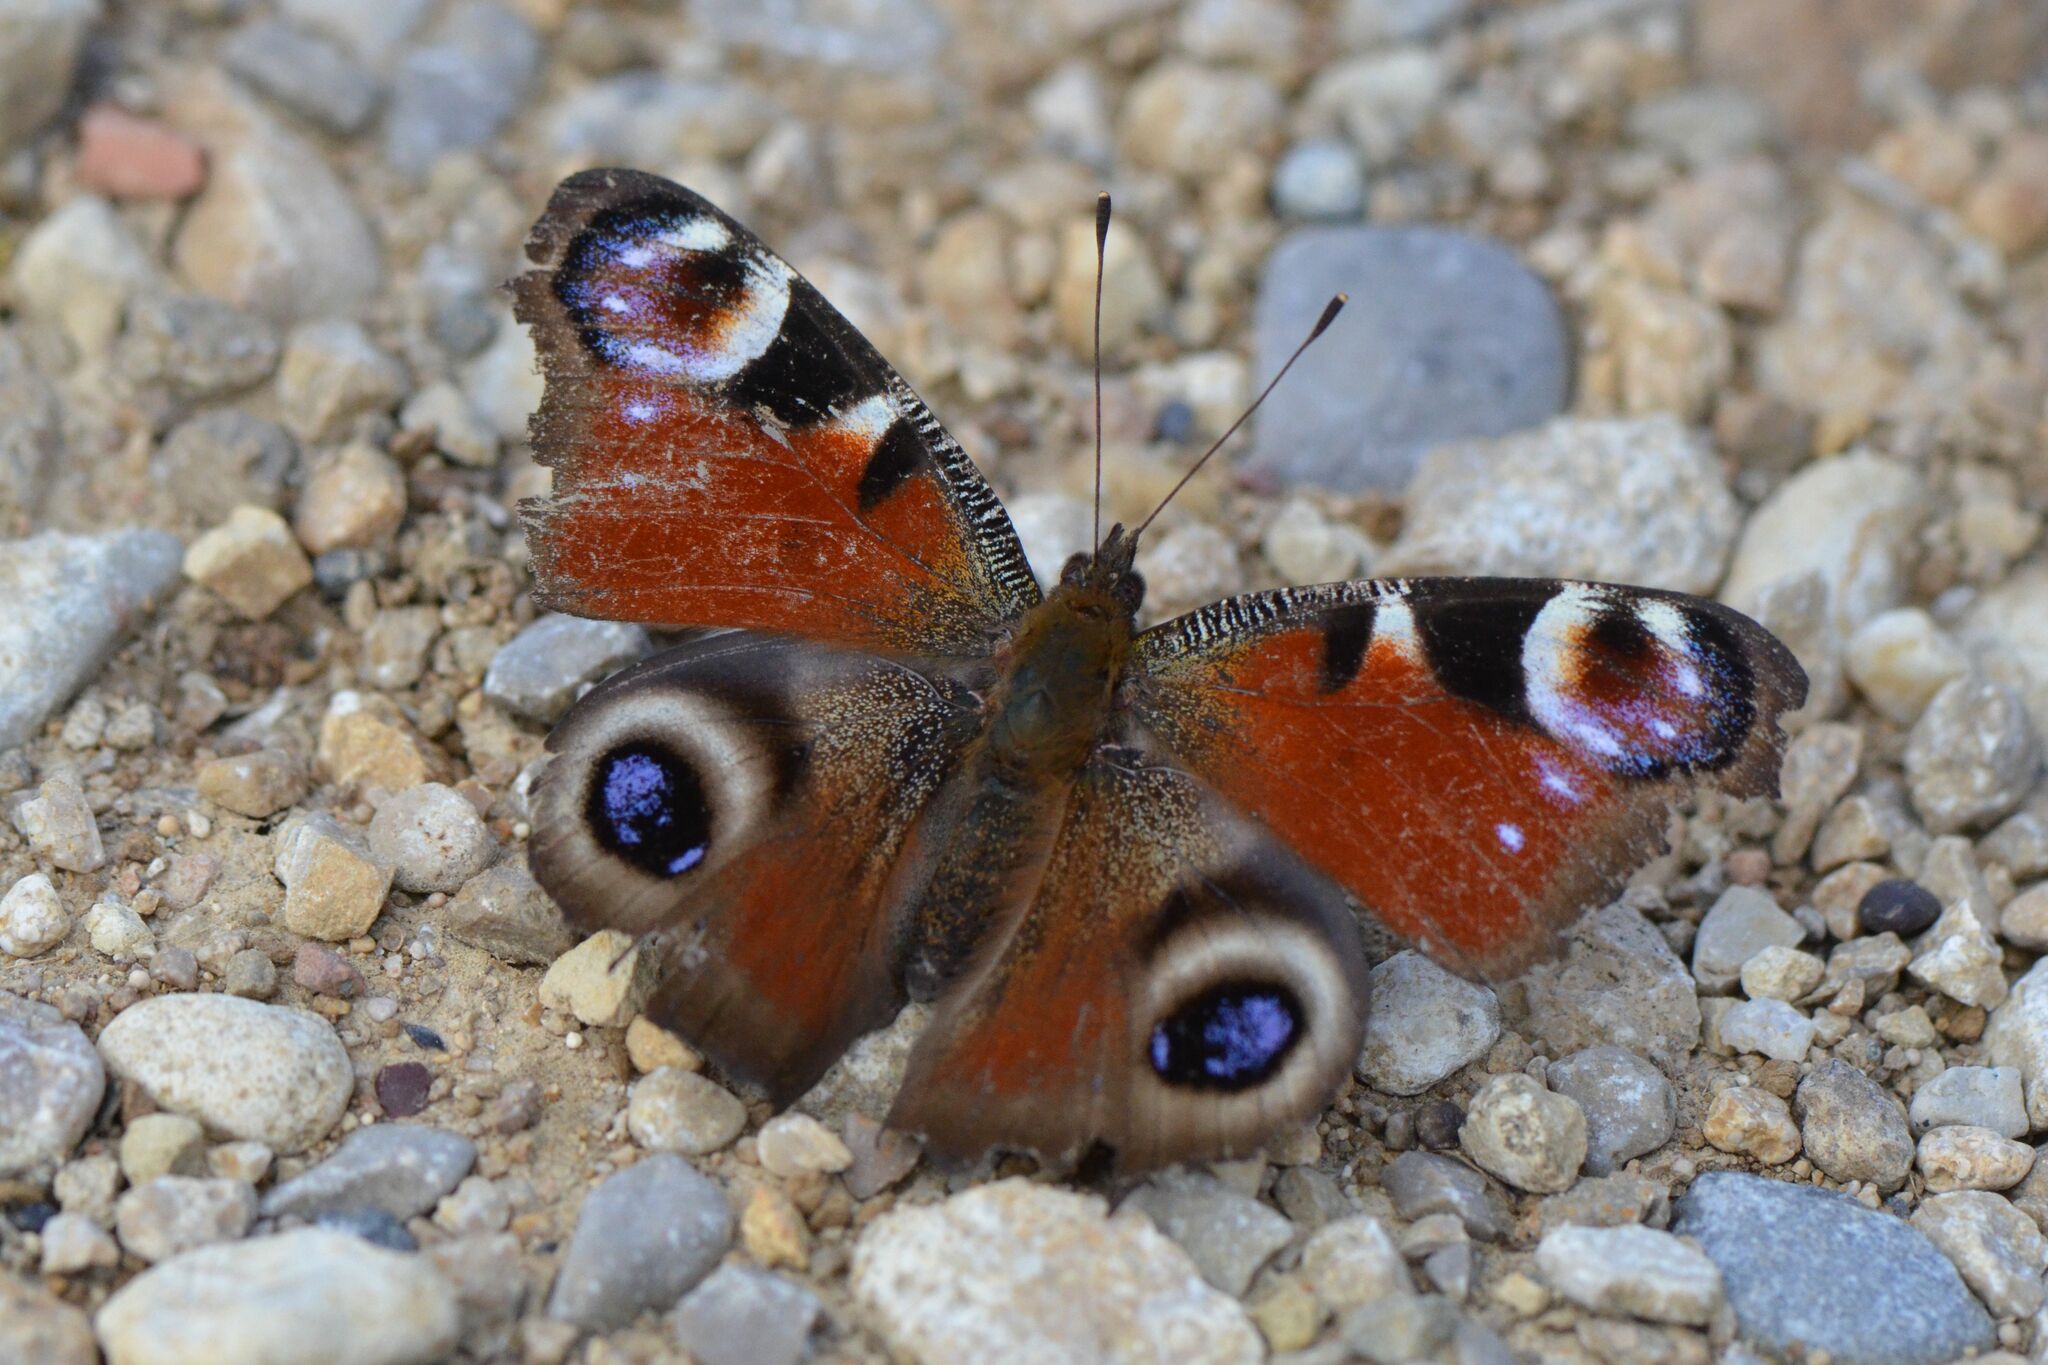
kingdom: Animalia
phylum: Arthropoda
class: Insecta
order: Lepidoptera
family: Nymphalidae
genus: Aglais
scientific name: Aglais io
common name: Peacock
